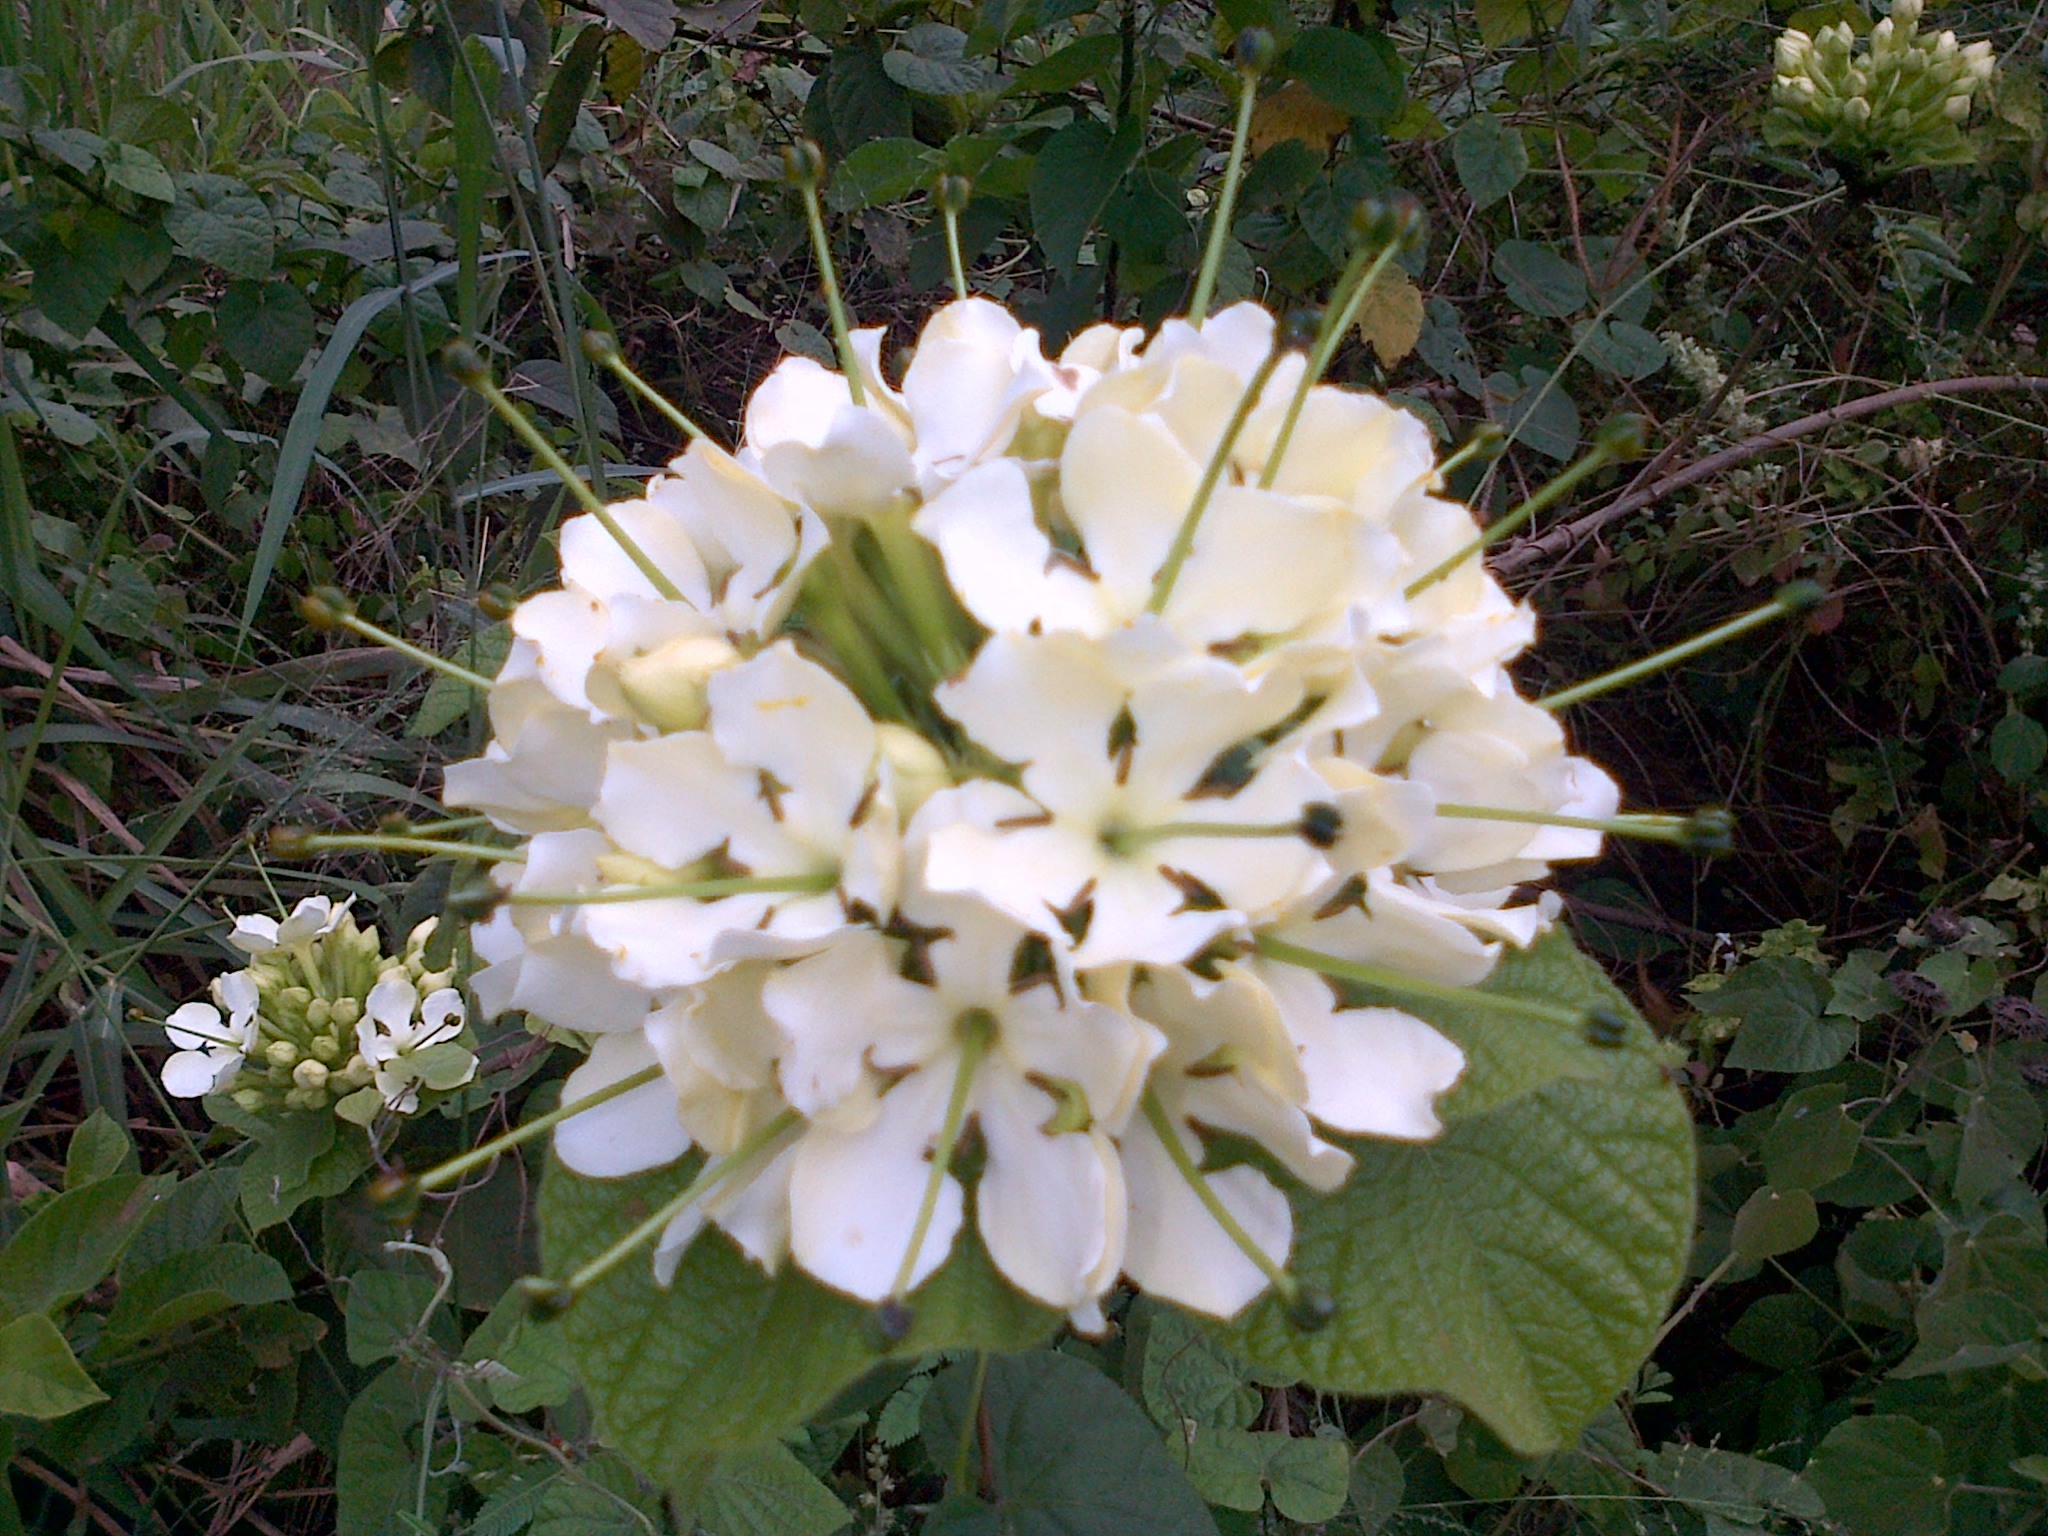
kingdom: Plantae
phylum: Tracheophyta
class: Magnoliopsida
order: Gentianales
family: Rubiaceae
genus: Macrosphyra
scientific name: Macrosphyra longistyla
